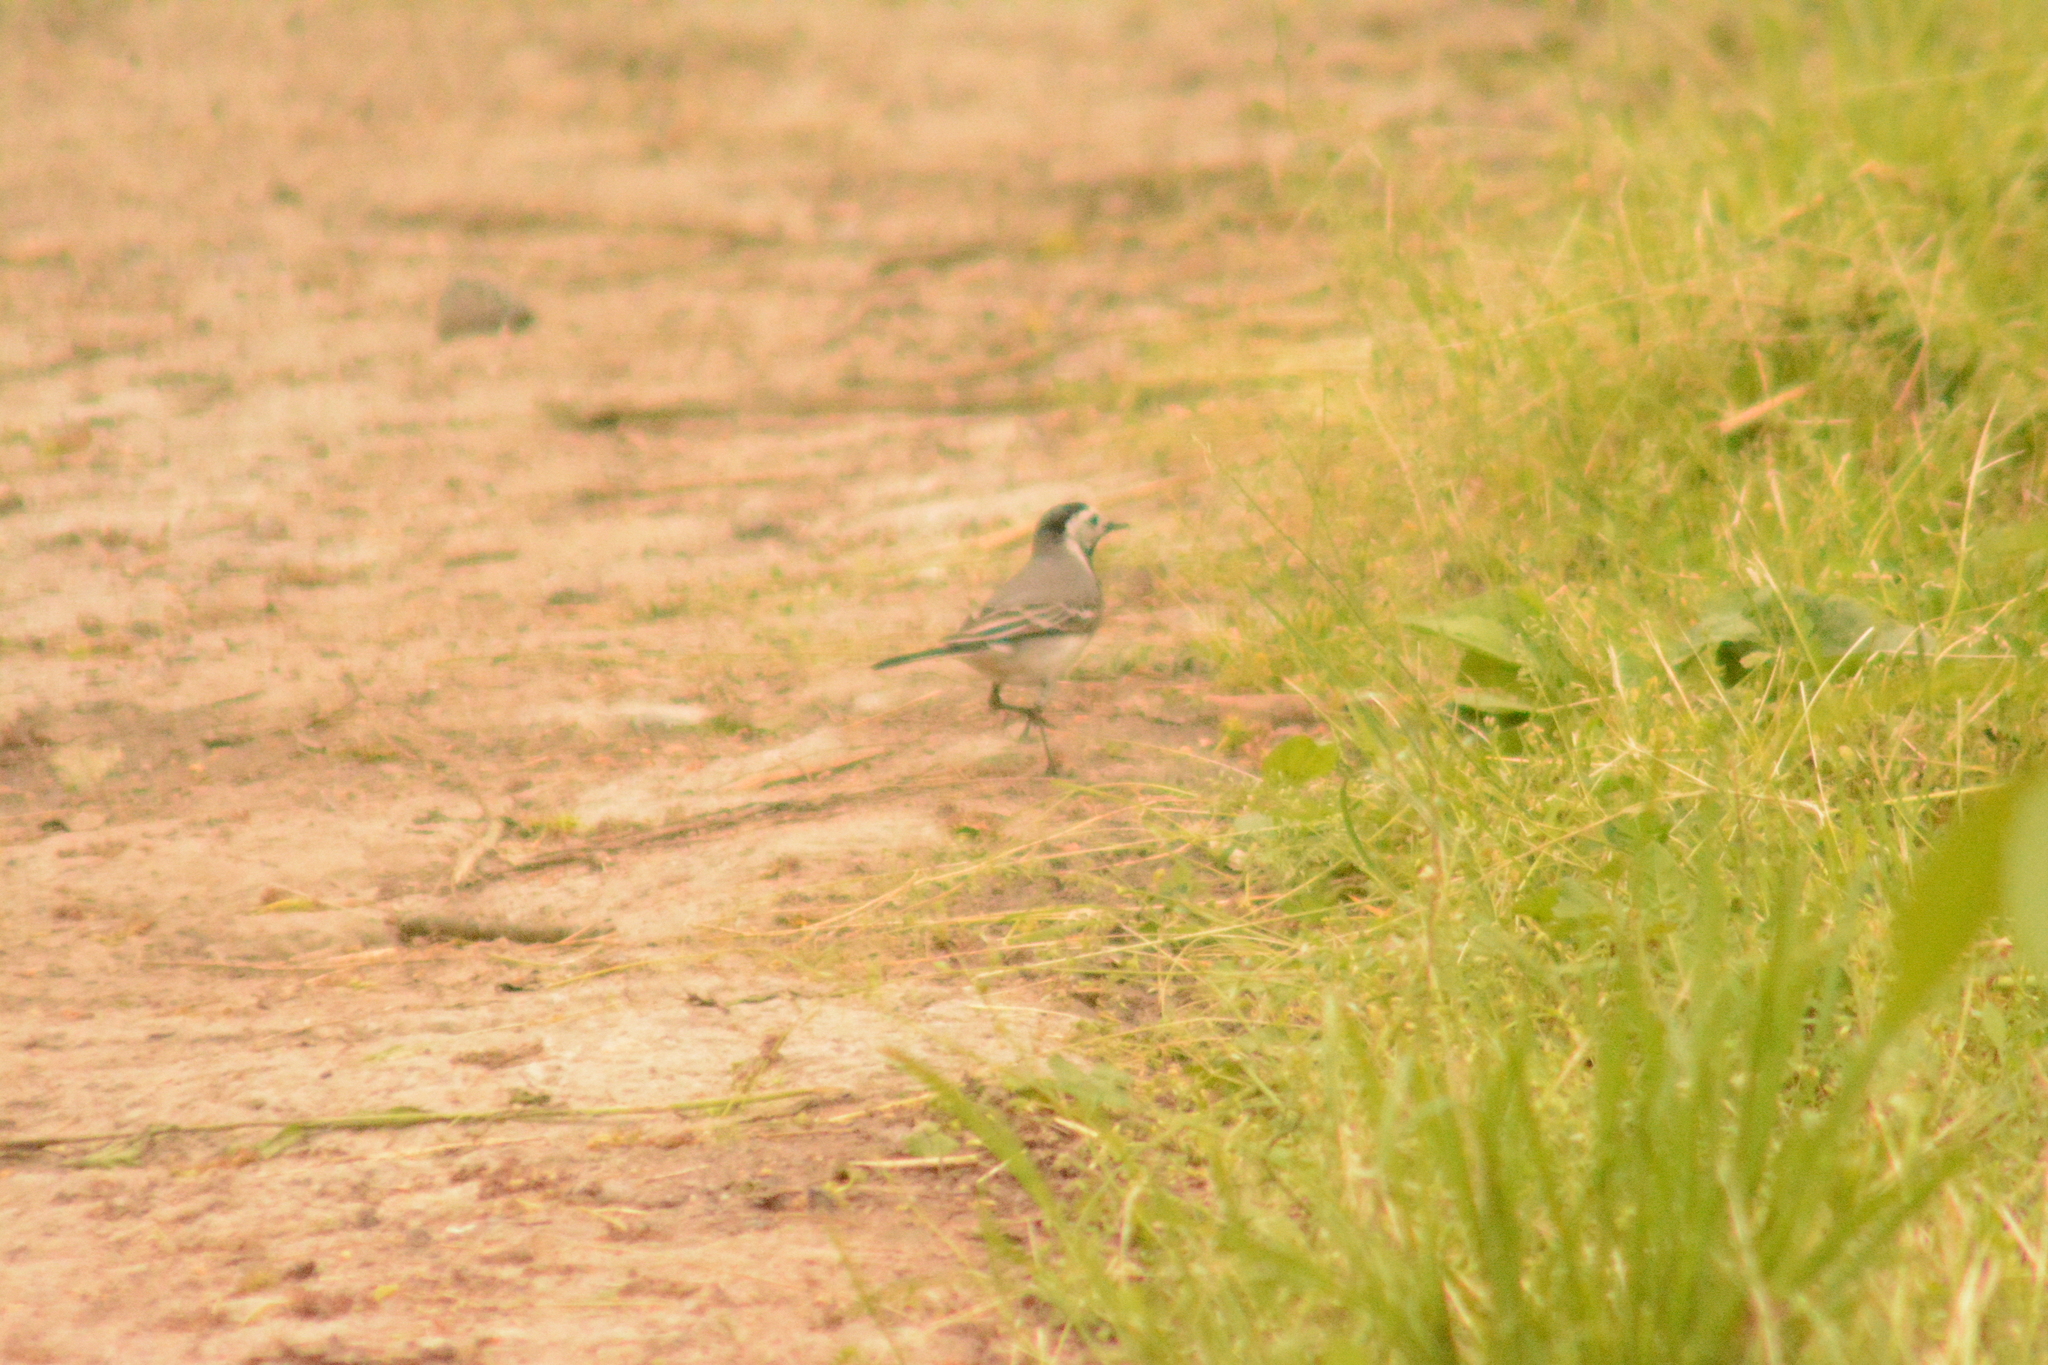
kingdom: Animalia
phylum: Chordata
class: Aves
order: Passeriformes
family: Motacillidae
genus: Motacilla
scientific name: Motacilla alba
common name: White wagtail
